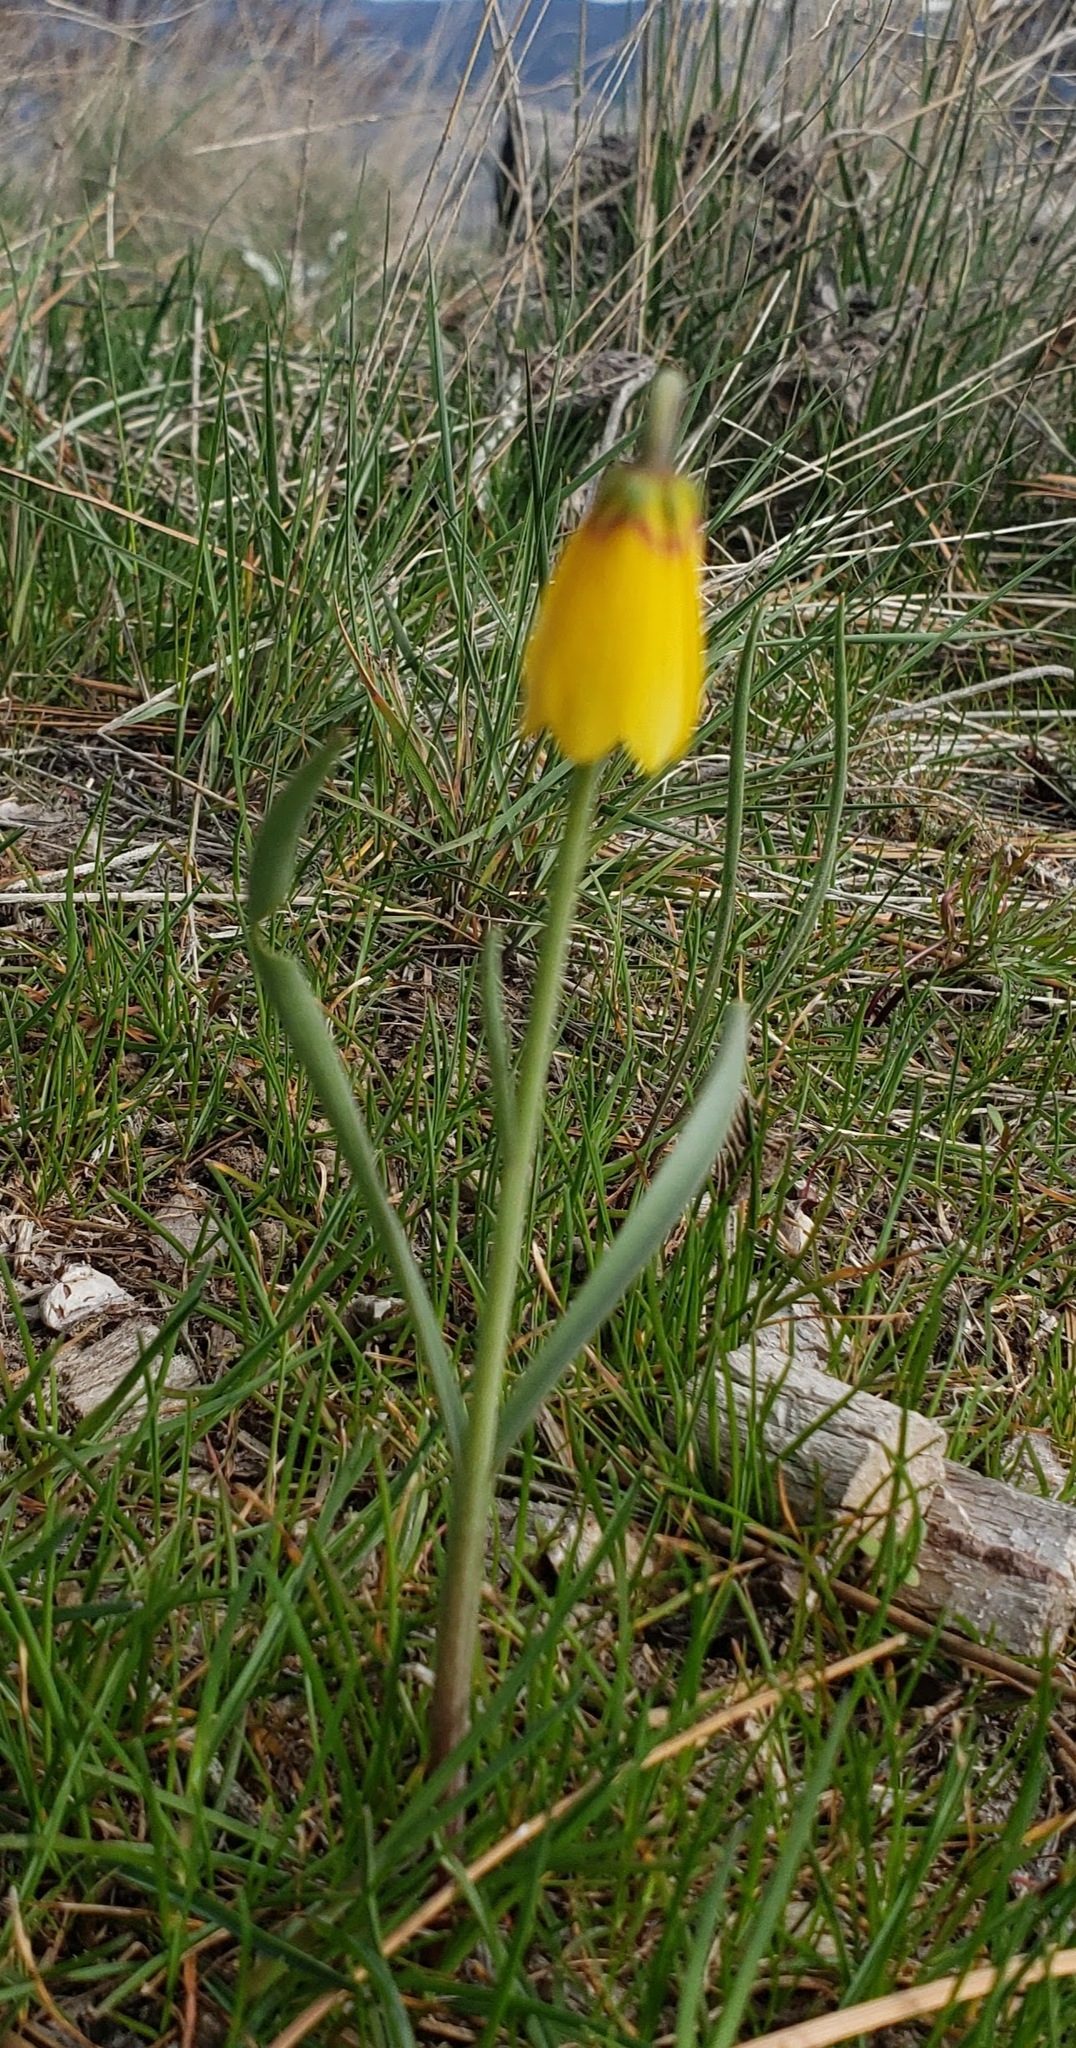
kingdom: Plantae
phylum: Tracheophyta
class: Liliopsida
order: Liliales
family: Liliaceae
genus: Fritillaria
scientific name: Fritillaria pudica
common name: Yellow fritillary
